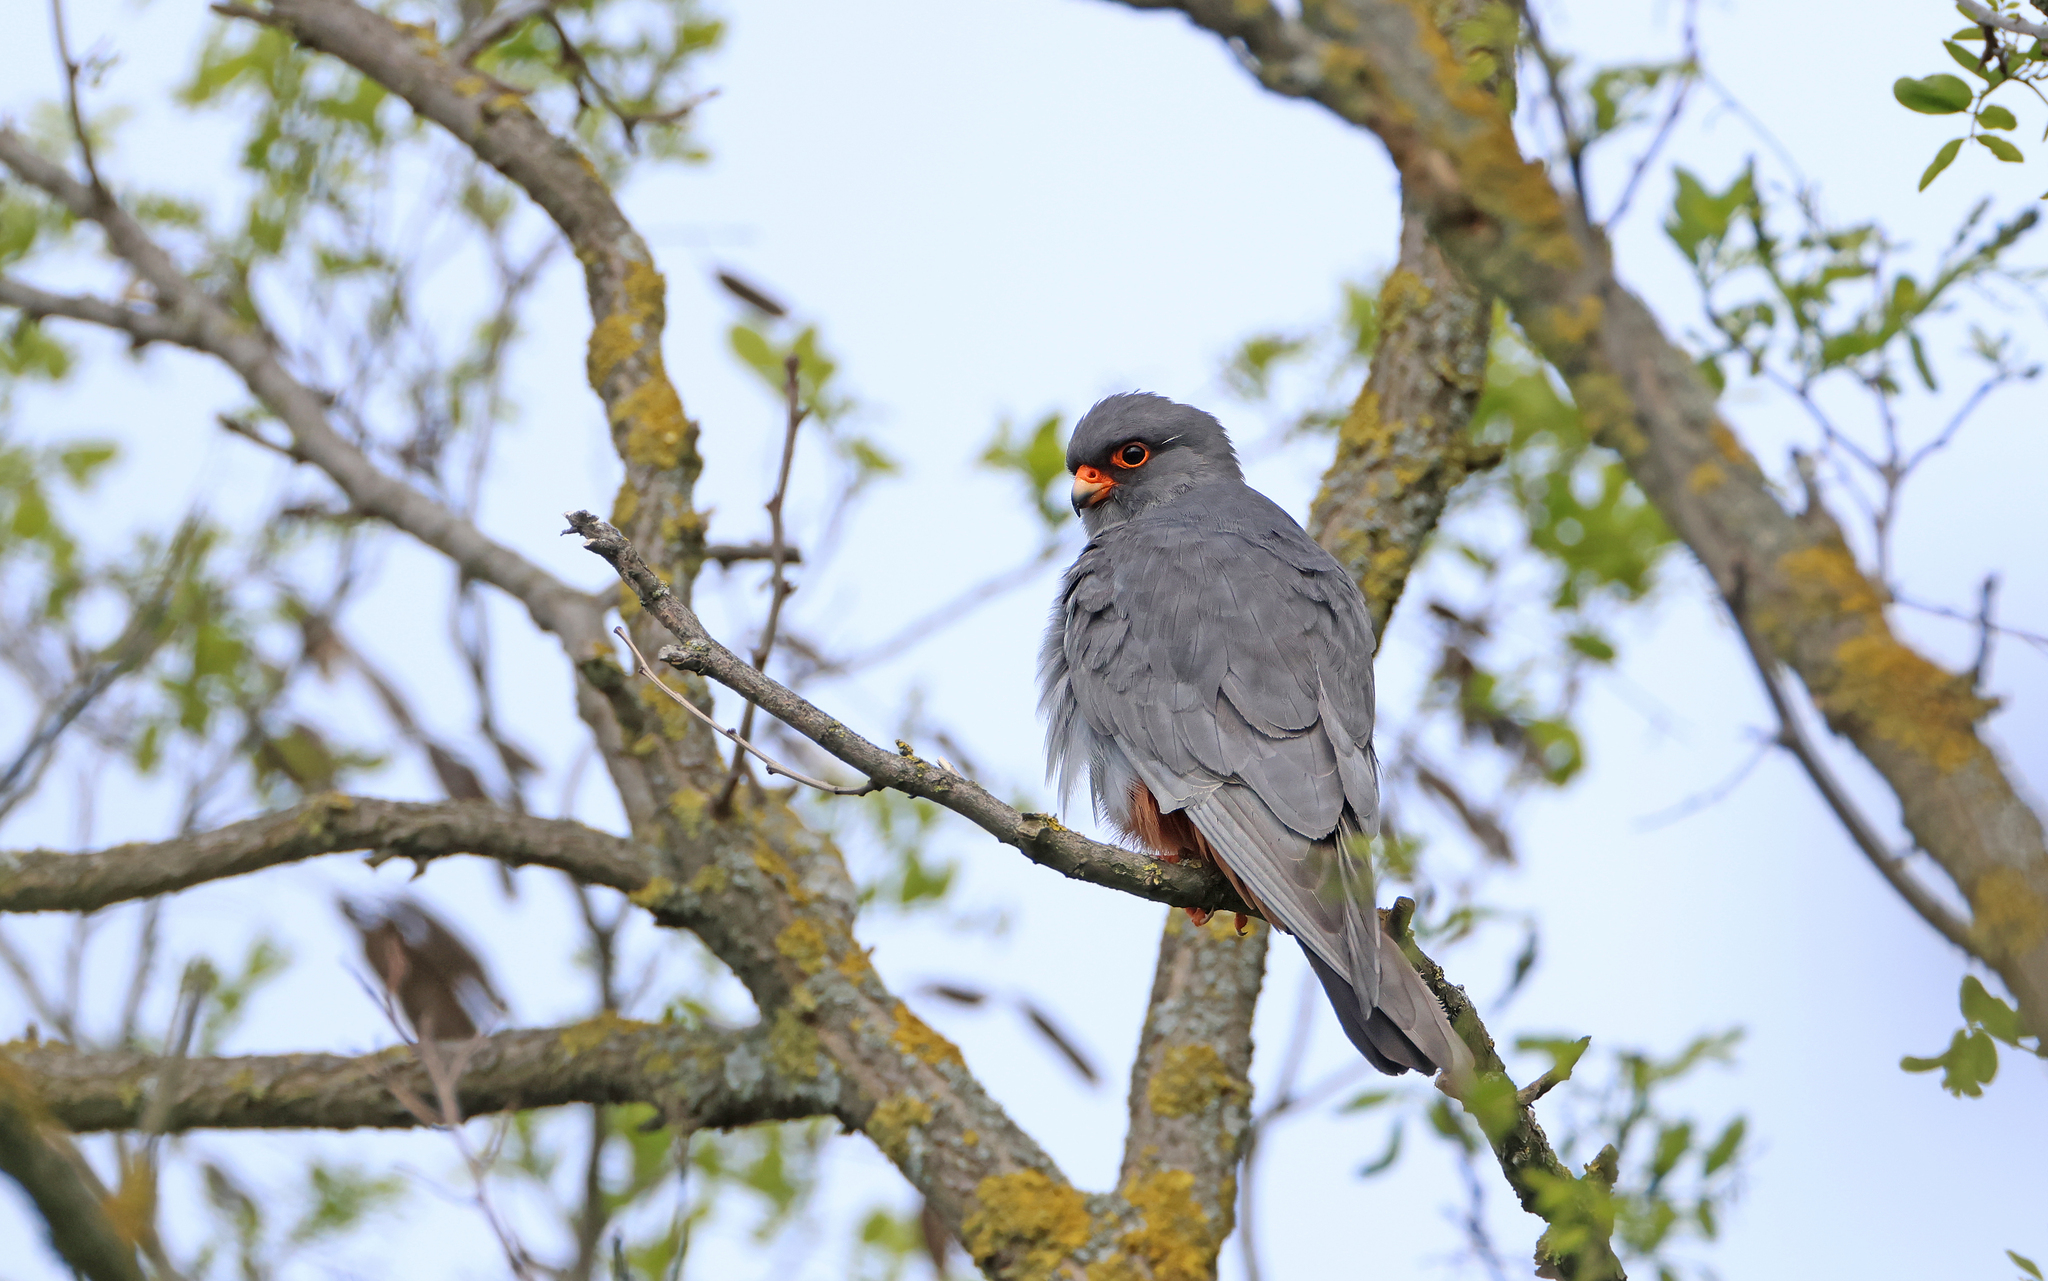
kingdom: Animalia
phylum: Chordata
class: Aves
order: Falconiformes
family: Falconidae
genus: Falco
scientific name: Falco vespertinus
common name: Red-footed falcon
